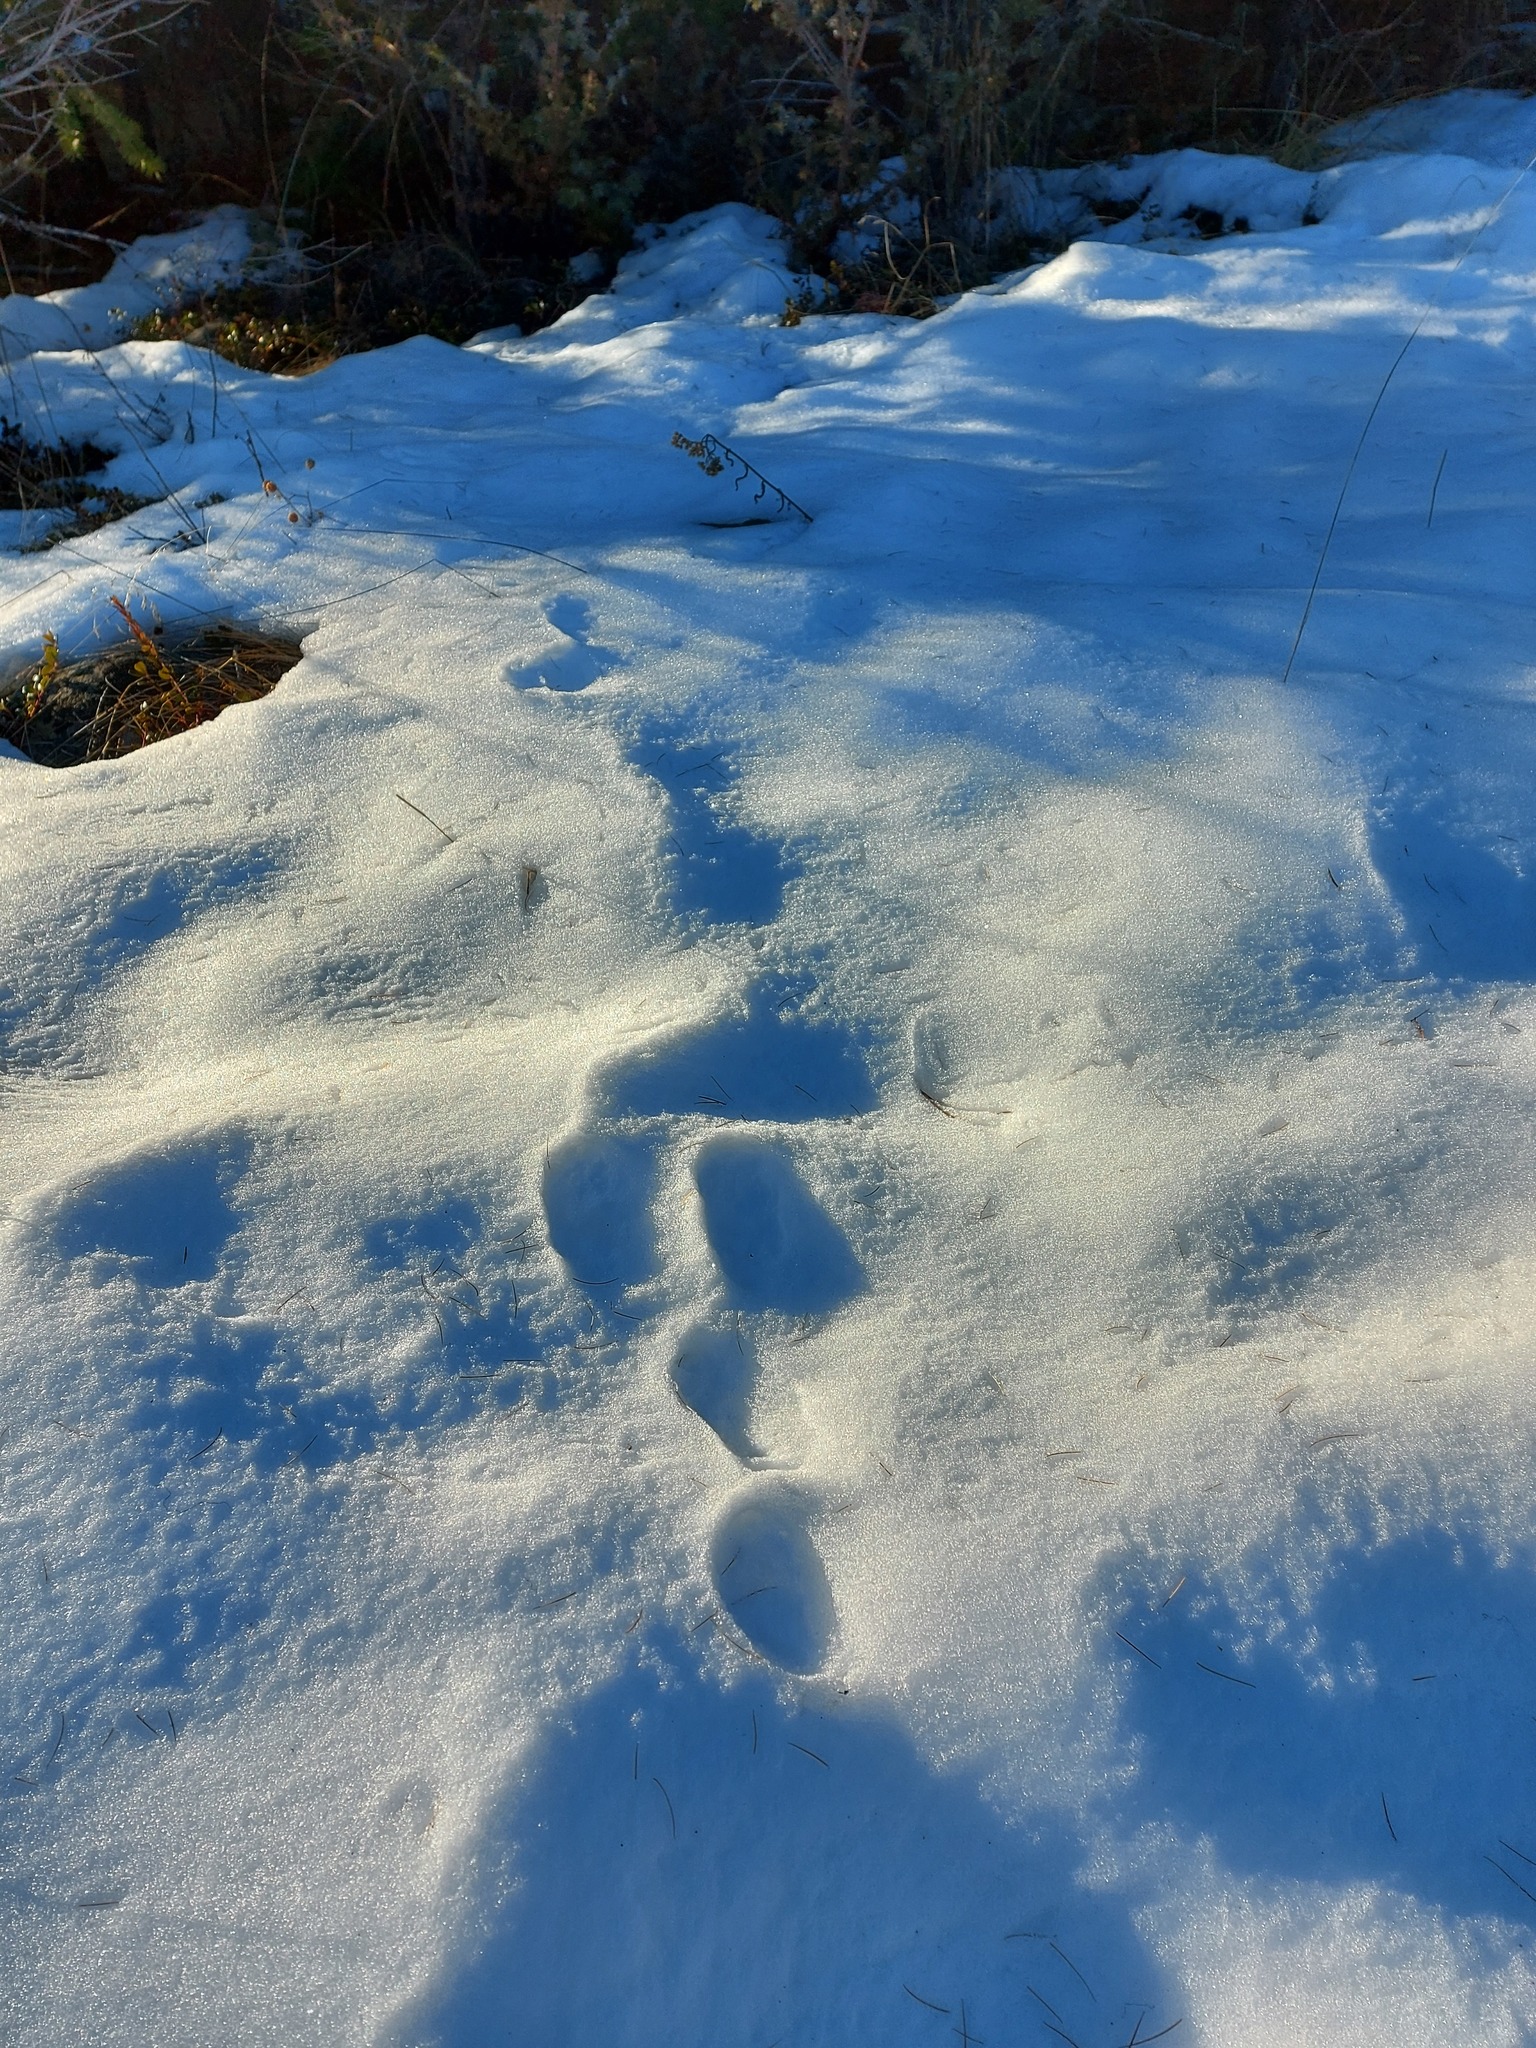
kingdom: Animalia
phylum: Chordata
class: Mammalia
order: Lagomorpha
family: Leporidae
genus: Lepus
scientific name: Lepus americanus
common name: Snowshoe hare
